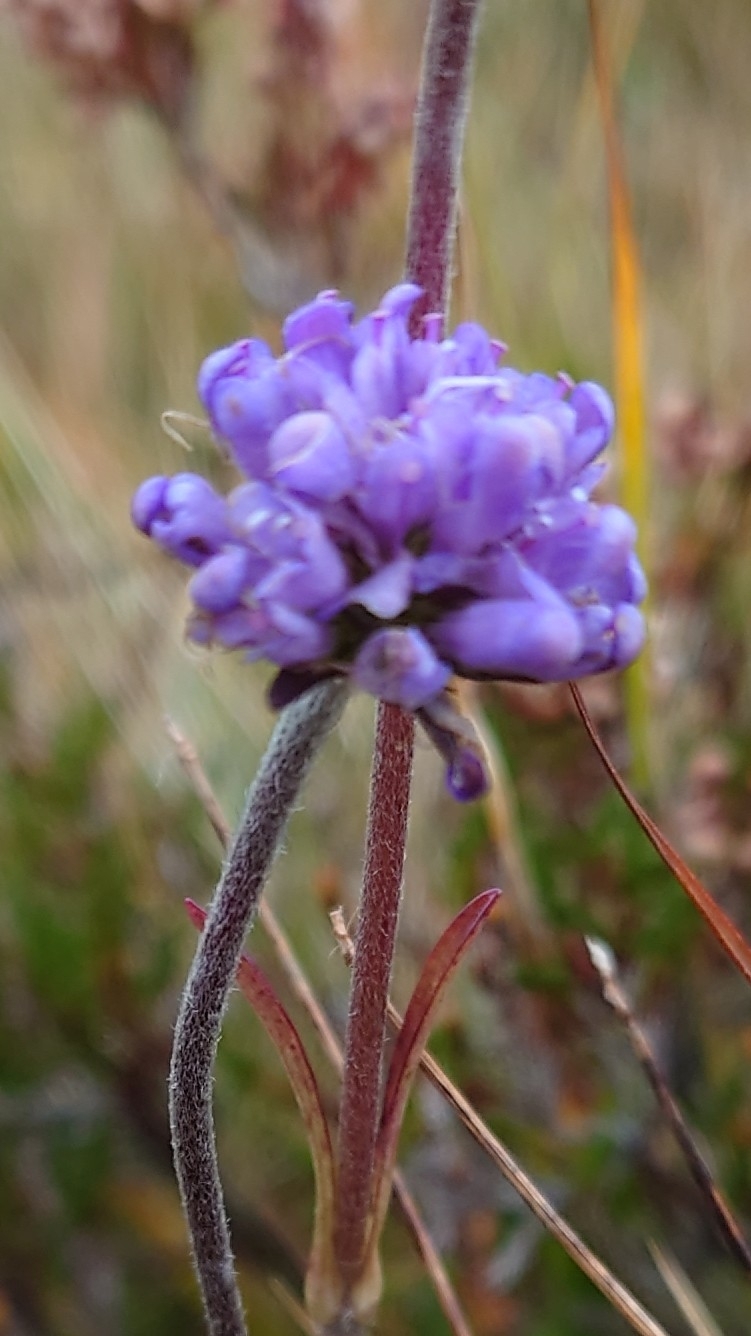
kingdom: Plantae
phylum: Tracheophyta
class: Magnoliopsida
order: Dipsacales
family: Caprifoliaceae
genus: Succisa
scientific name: Succisa pratensis
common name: Devil's-bit
